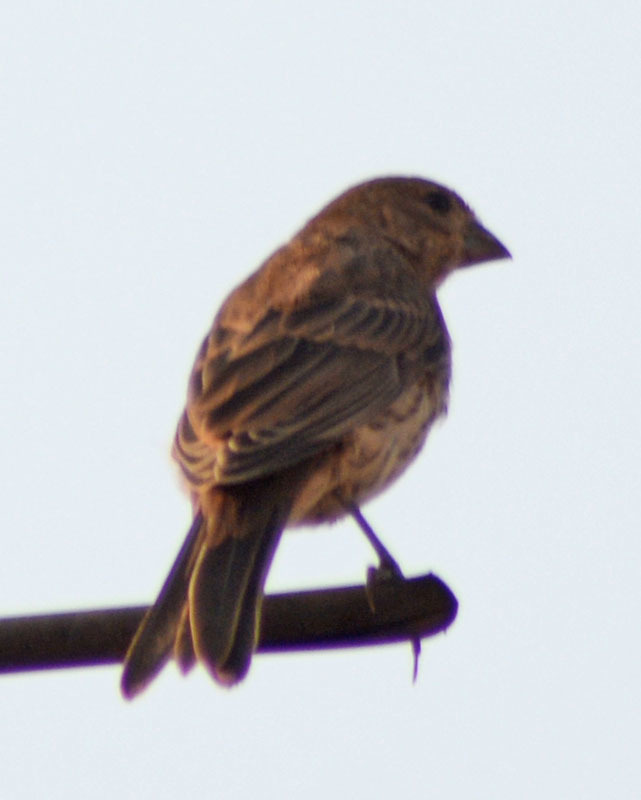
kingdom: Animalia
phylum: Chordata
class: Aves
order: Passeriformes
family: Fringillidae
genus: Haemorhous
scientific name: Haemorhous mexicanus
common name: House finch
